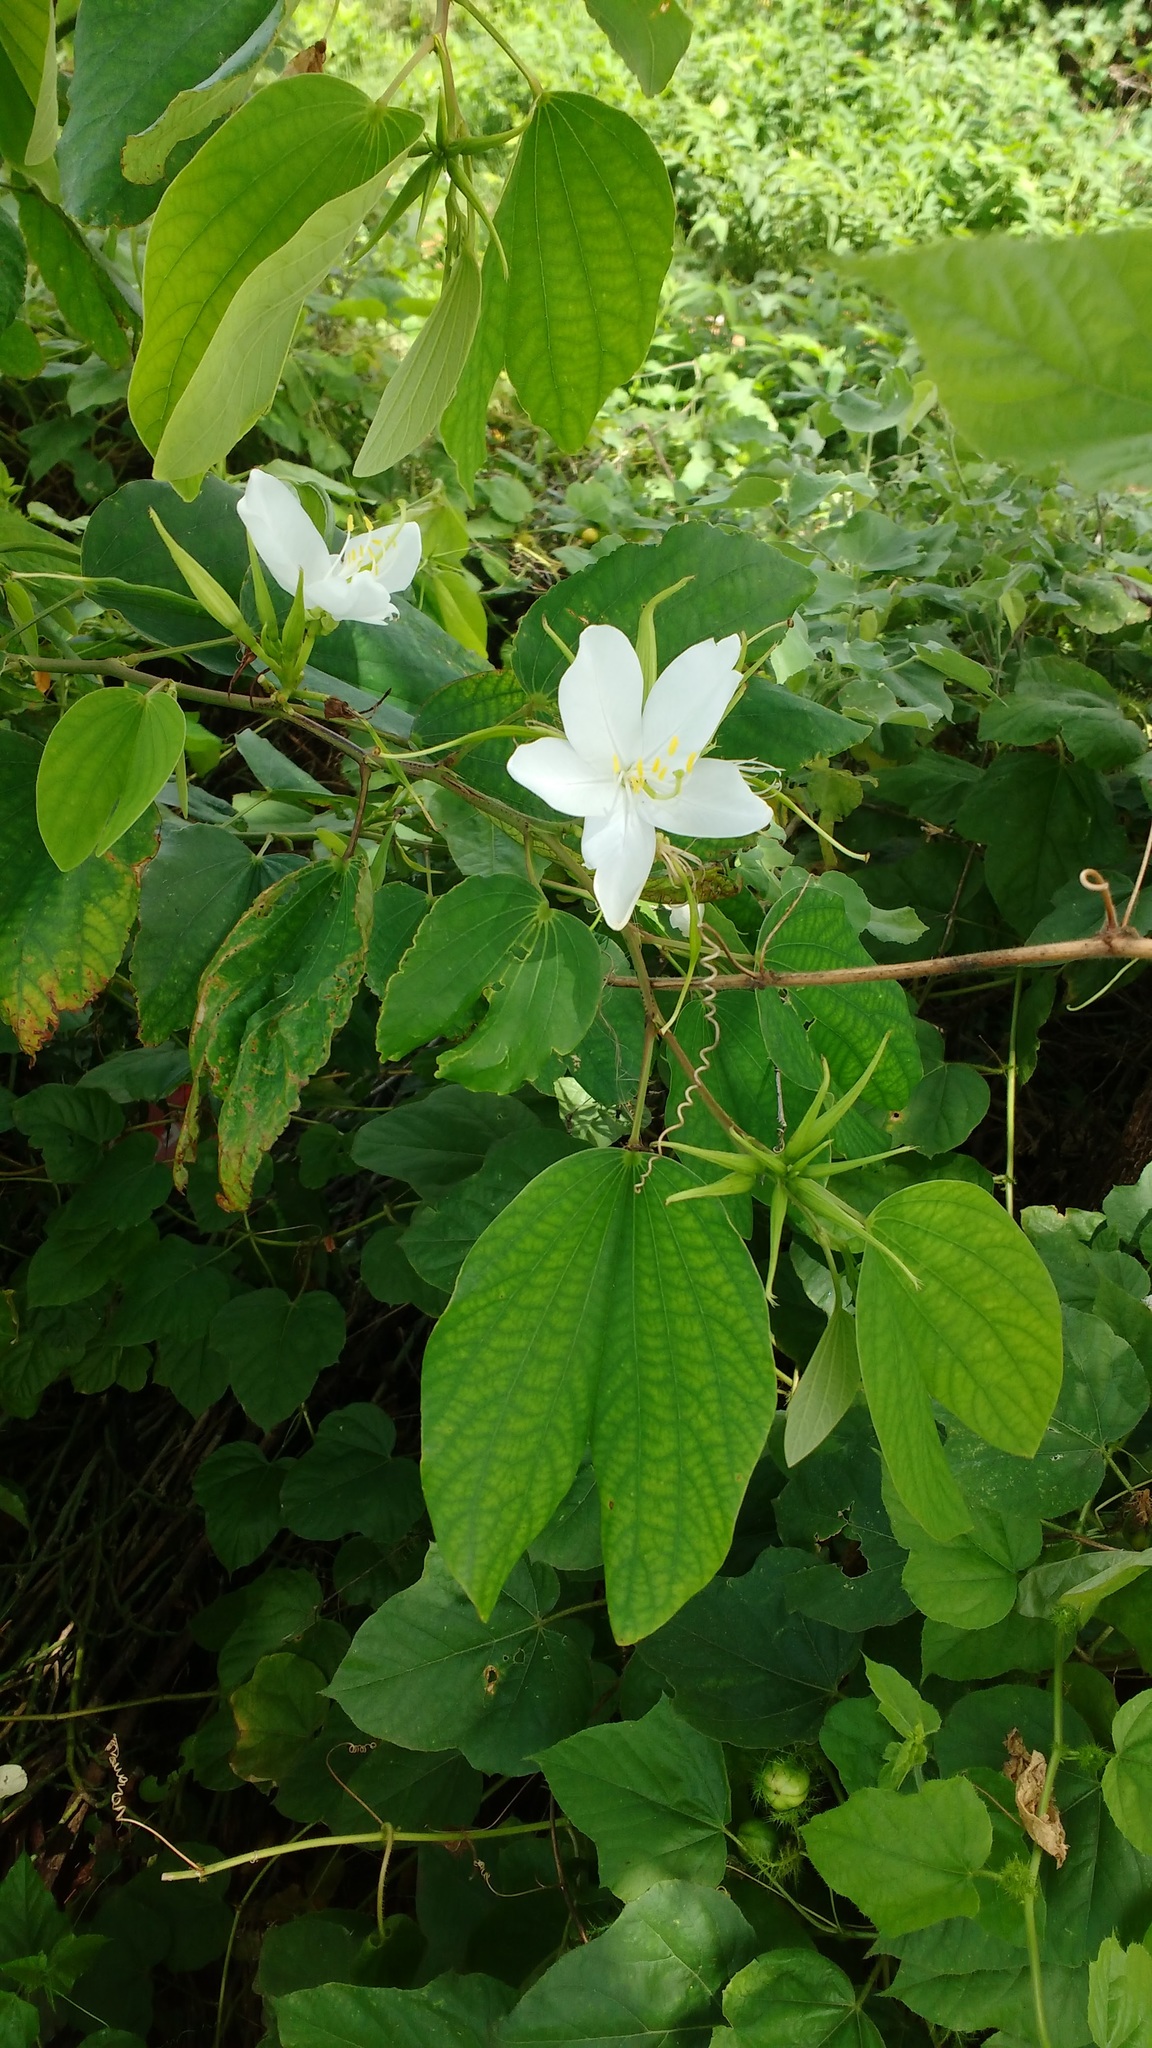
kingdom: Plantae
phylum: Tracheophyta
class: Magnoliopsida
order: Fabales
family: Fabaceae
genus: Bauhinia
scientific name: Bauhinia acuminata
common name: Dwarf white bauhinia
